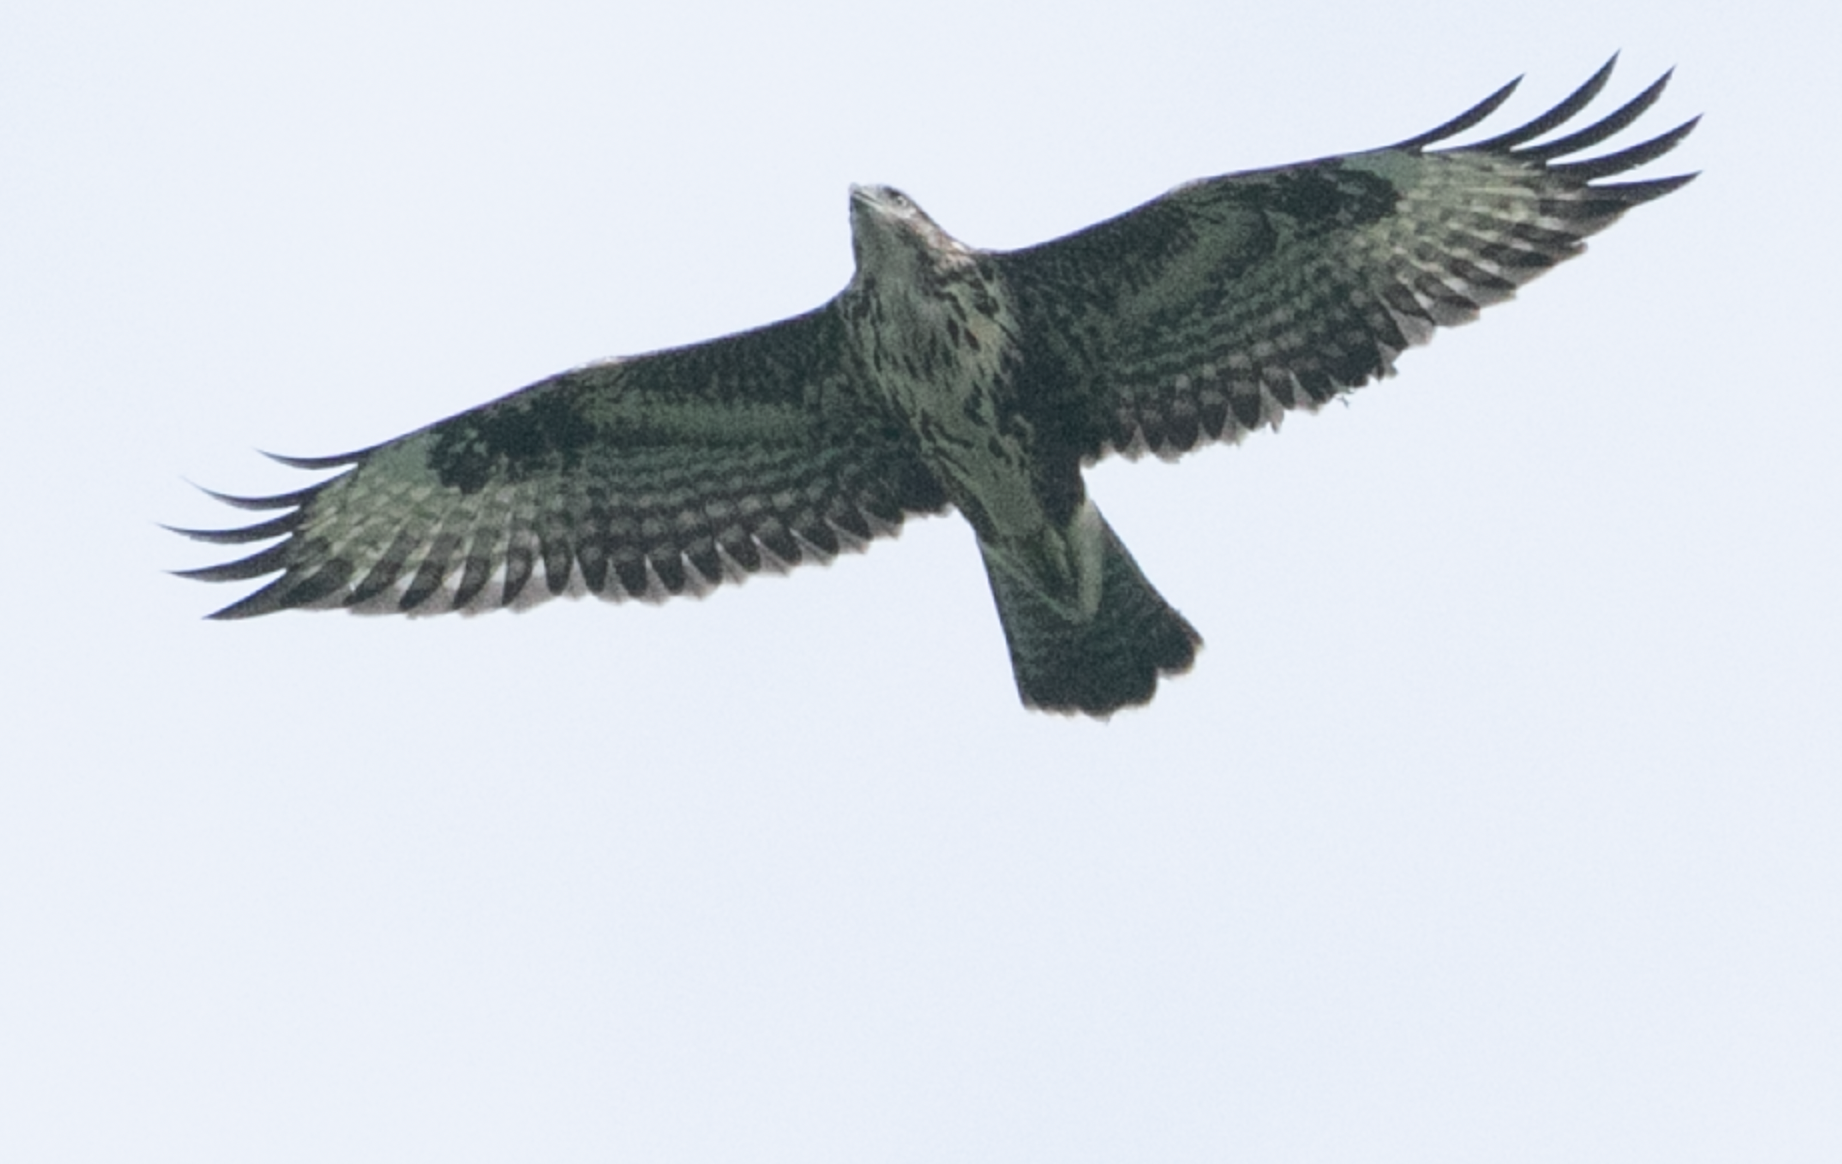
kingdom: Animalia
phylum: Chordata
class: Aves
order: Accipitriformes
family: Accipitridae
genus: Buteo
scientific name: Buteo buteo
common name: Common buzzard
